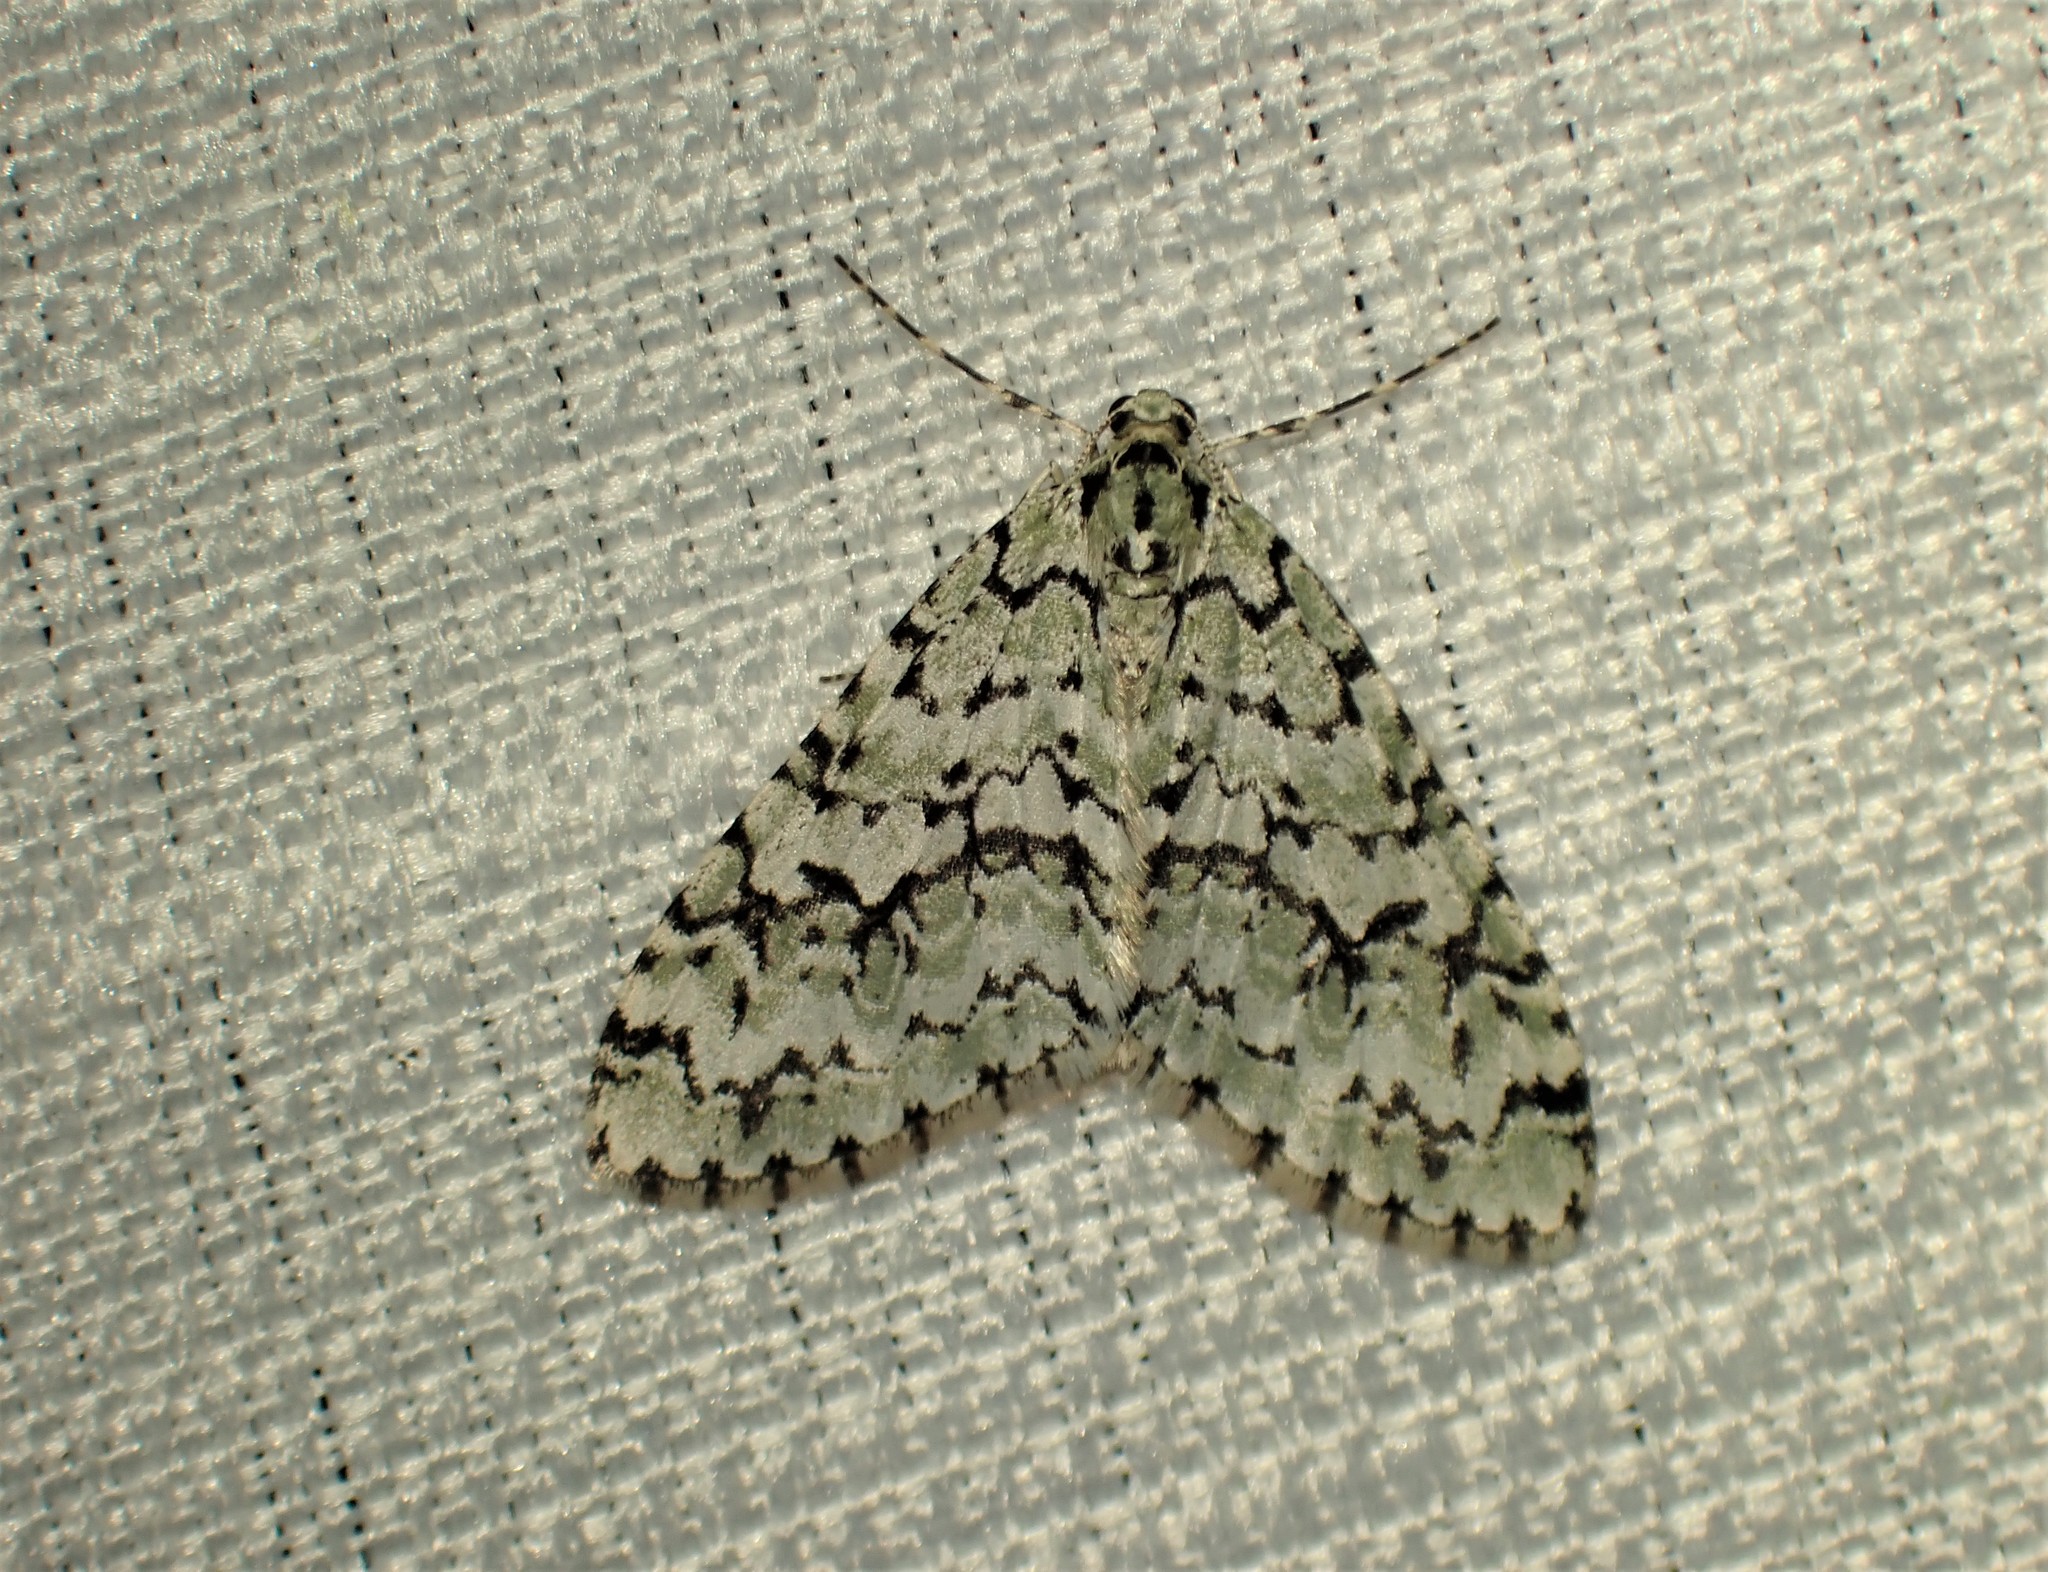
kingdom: Animalia
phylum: Arthropoda
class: Insecta
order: Lepidoptera
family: Geometridae
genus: Cladara
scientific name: Cladara atroliturata
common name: Scribbler
